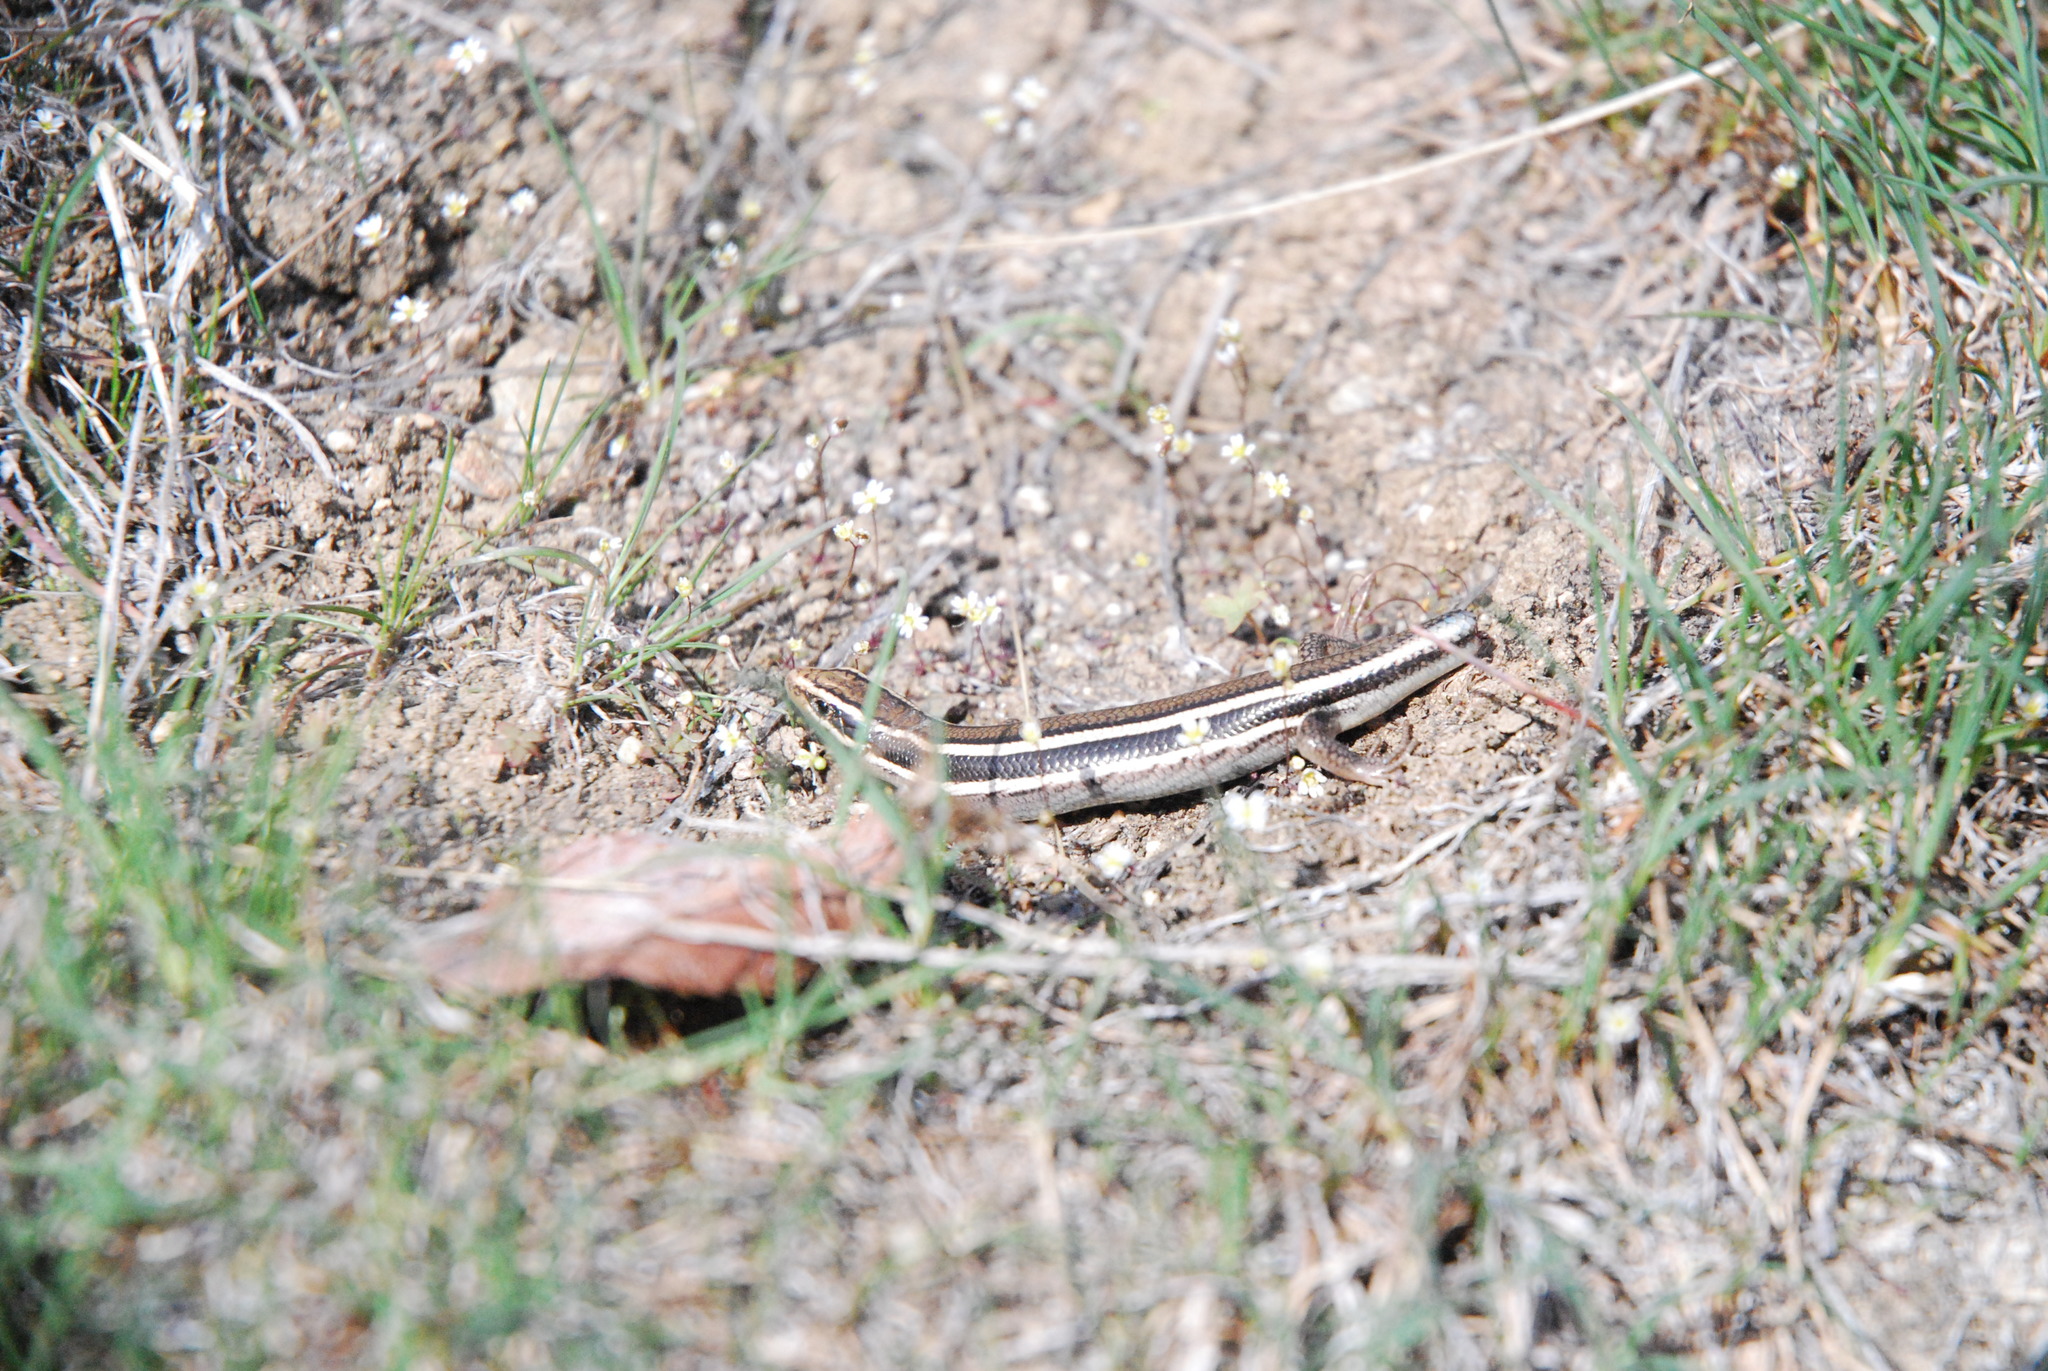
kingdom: Animalia
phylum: Chordata
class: Squamata
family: Scincidae
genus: Plestiodon
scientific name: Plestiodon skiltonianus
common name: Coronado island skink [interparietalis]
